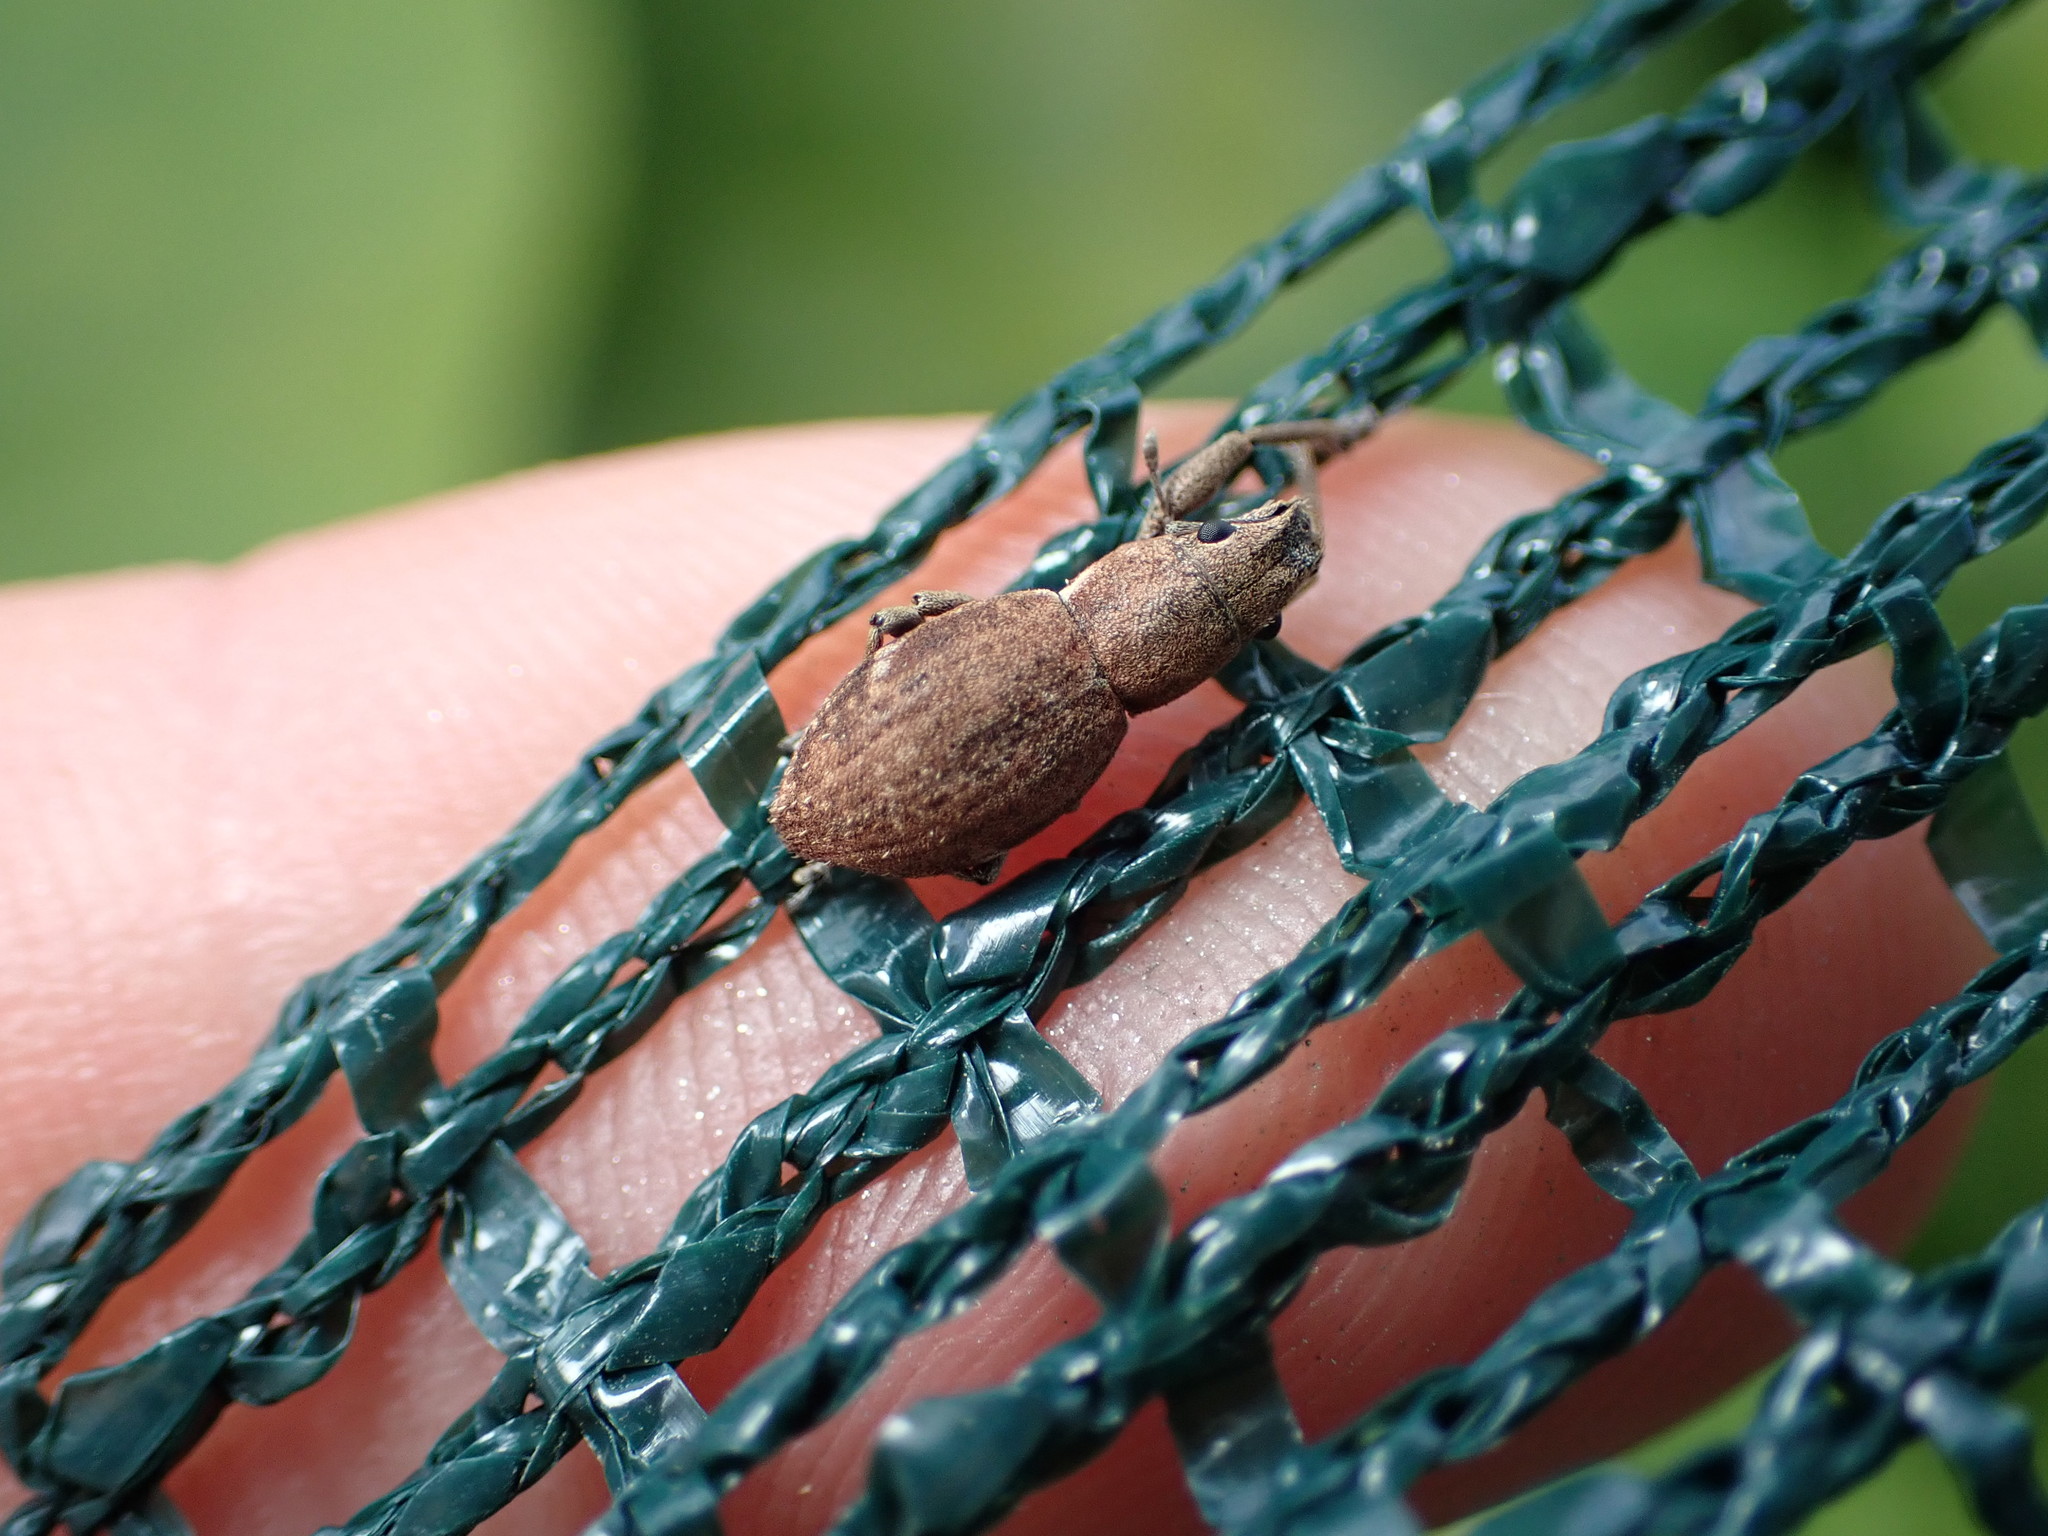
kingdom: Animalia
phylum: Arthropoda
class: Insecta
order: Coleoptera
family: Curculionidae
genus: Naupactus
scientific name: Naupactus cervinus
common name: Fuller rose beetle
